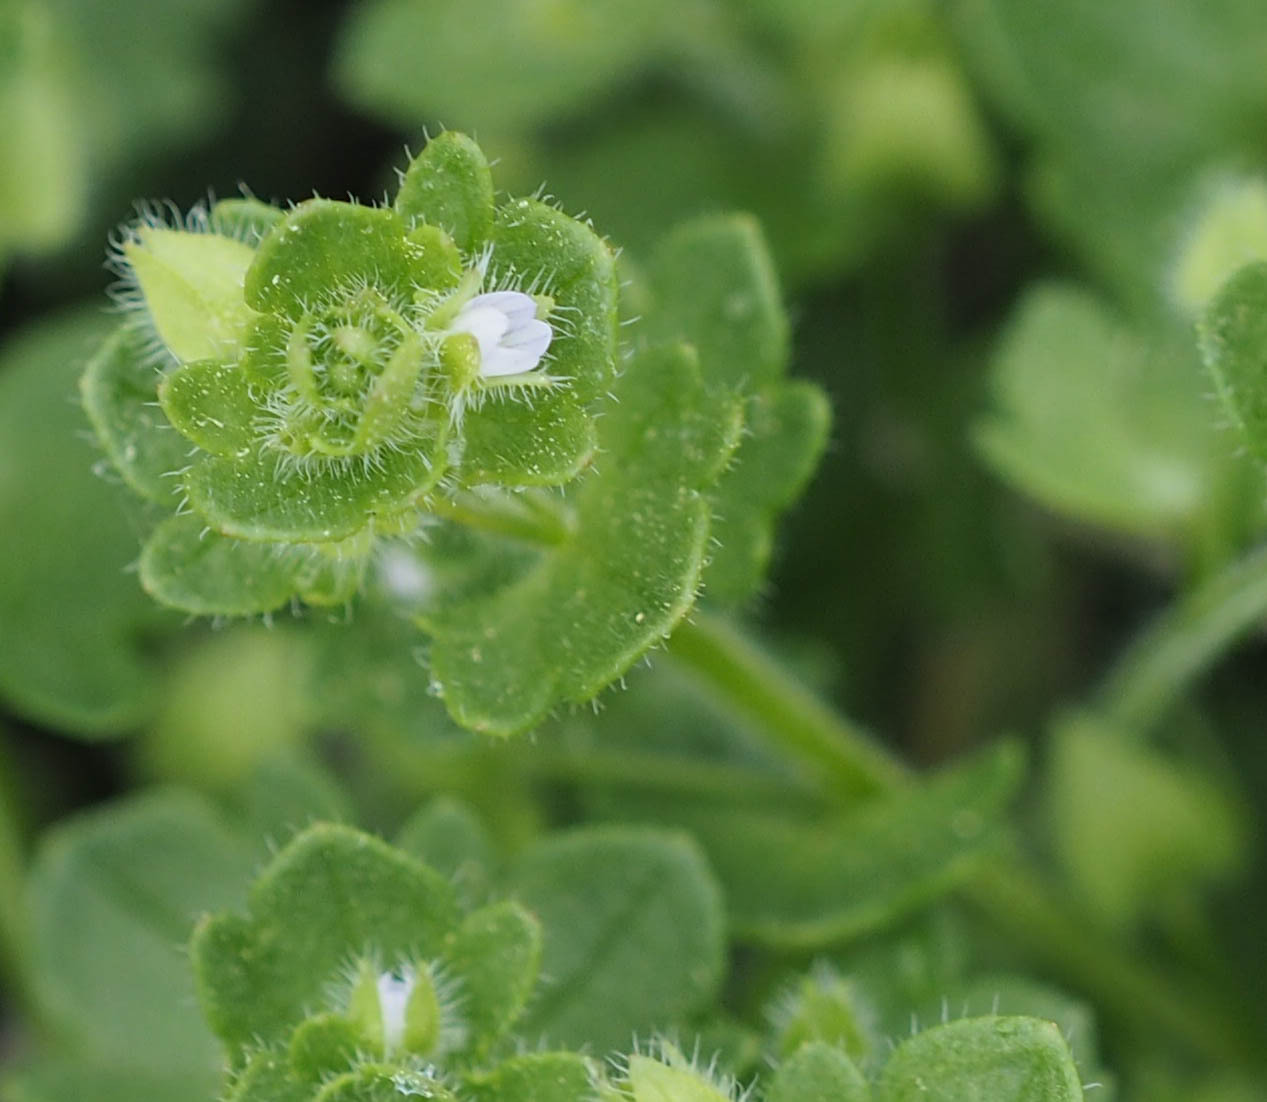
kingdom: Plantae
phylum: Tracheophyta
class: Magnoliopsida
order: Lamiales
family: Plantaginaceae
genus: Veronica
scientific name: Veronica hederifolia
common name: Ivy-leaved speedwell
